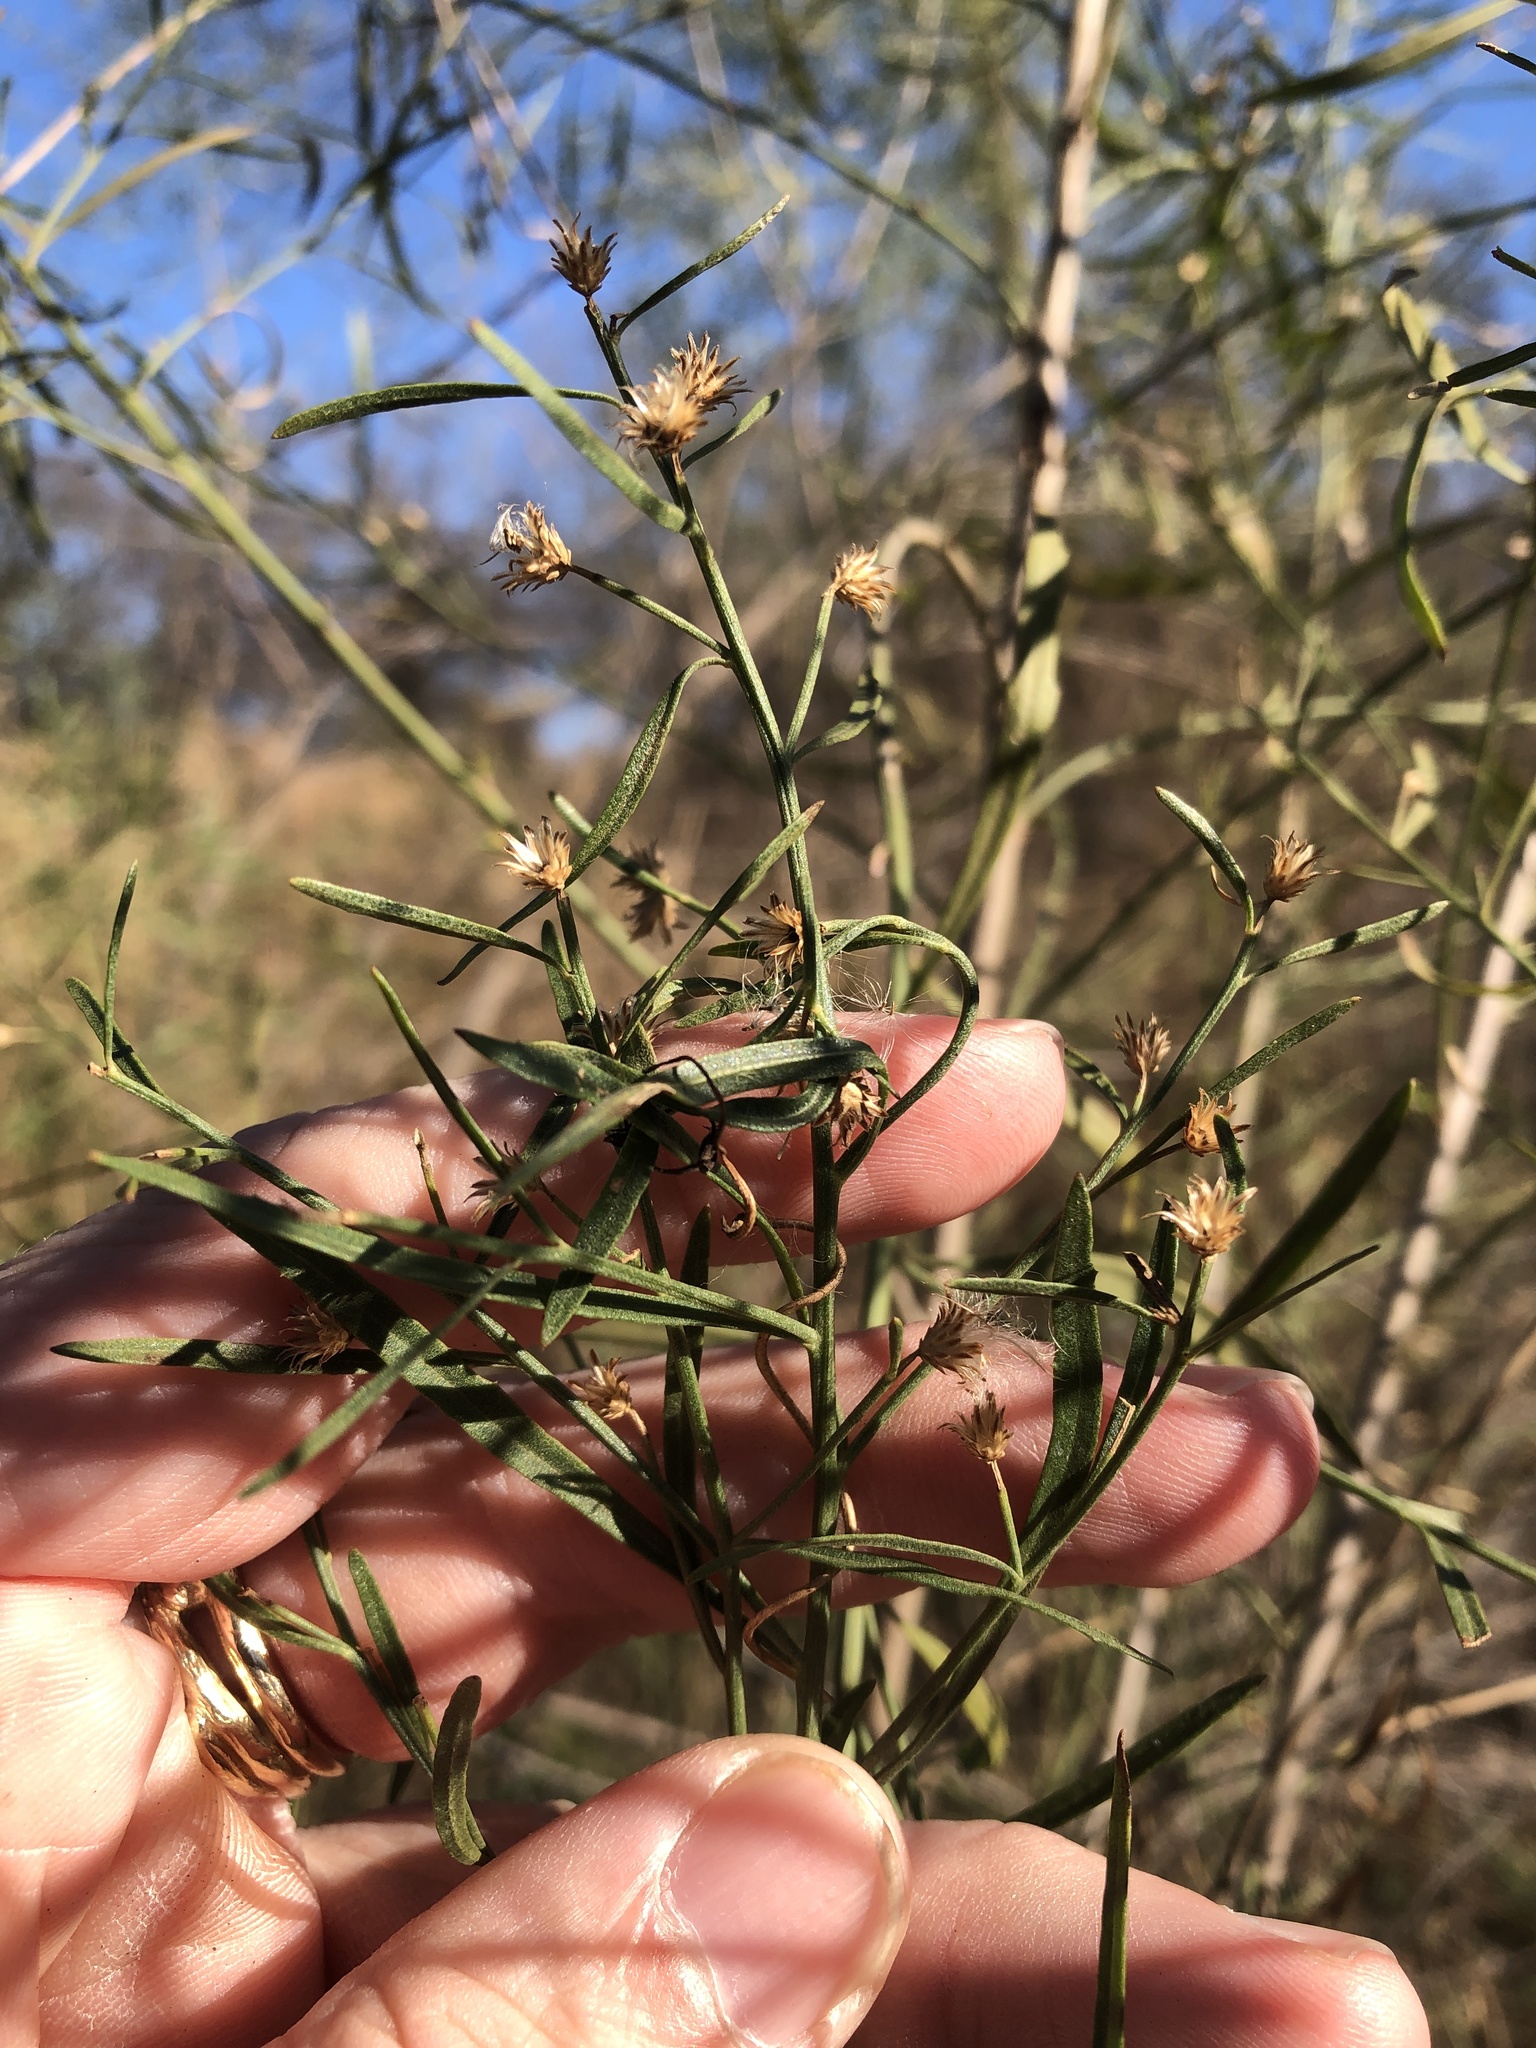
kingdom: Plantae
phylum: Tracheophyta
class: Magnoliopsida
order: Asterales
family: Asteraceae
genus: Baccharis
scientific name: Baccharis neglecta
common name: Roosevelt-weed
